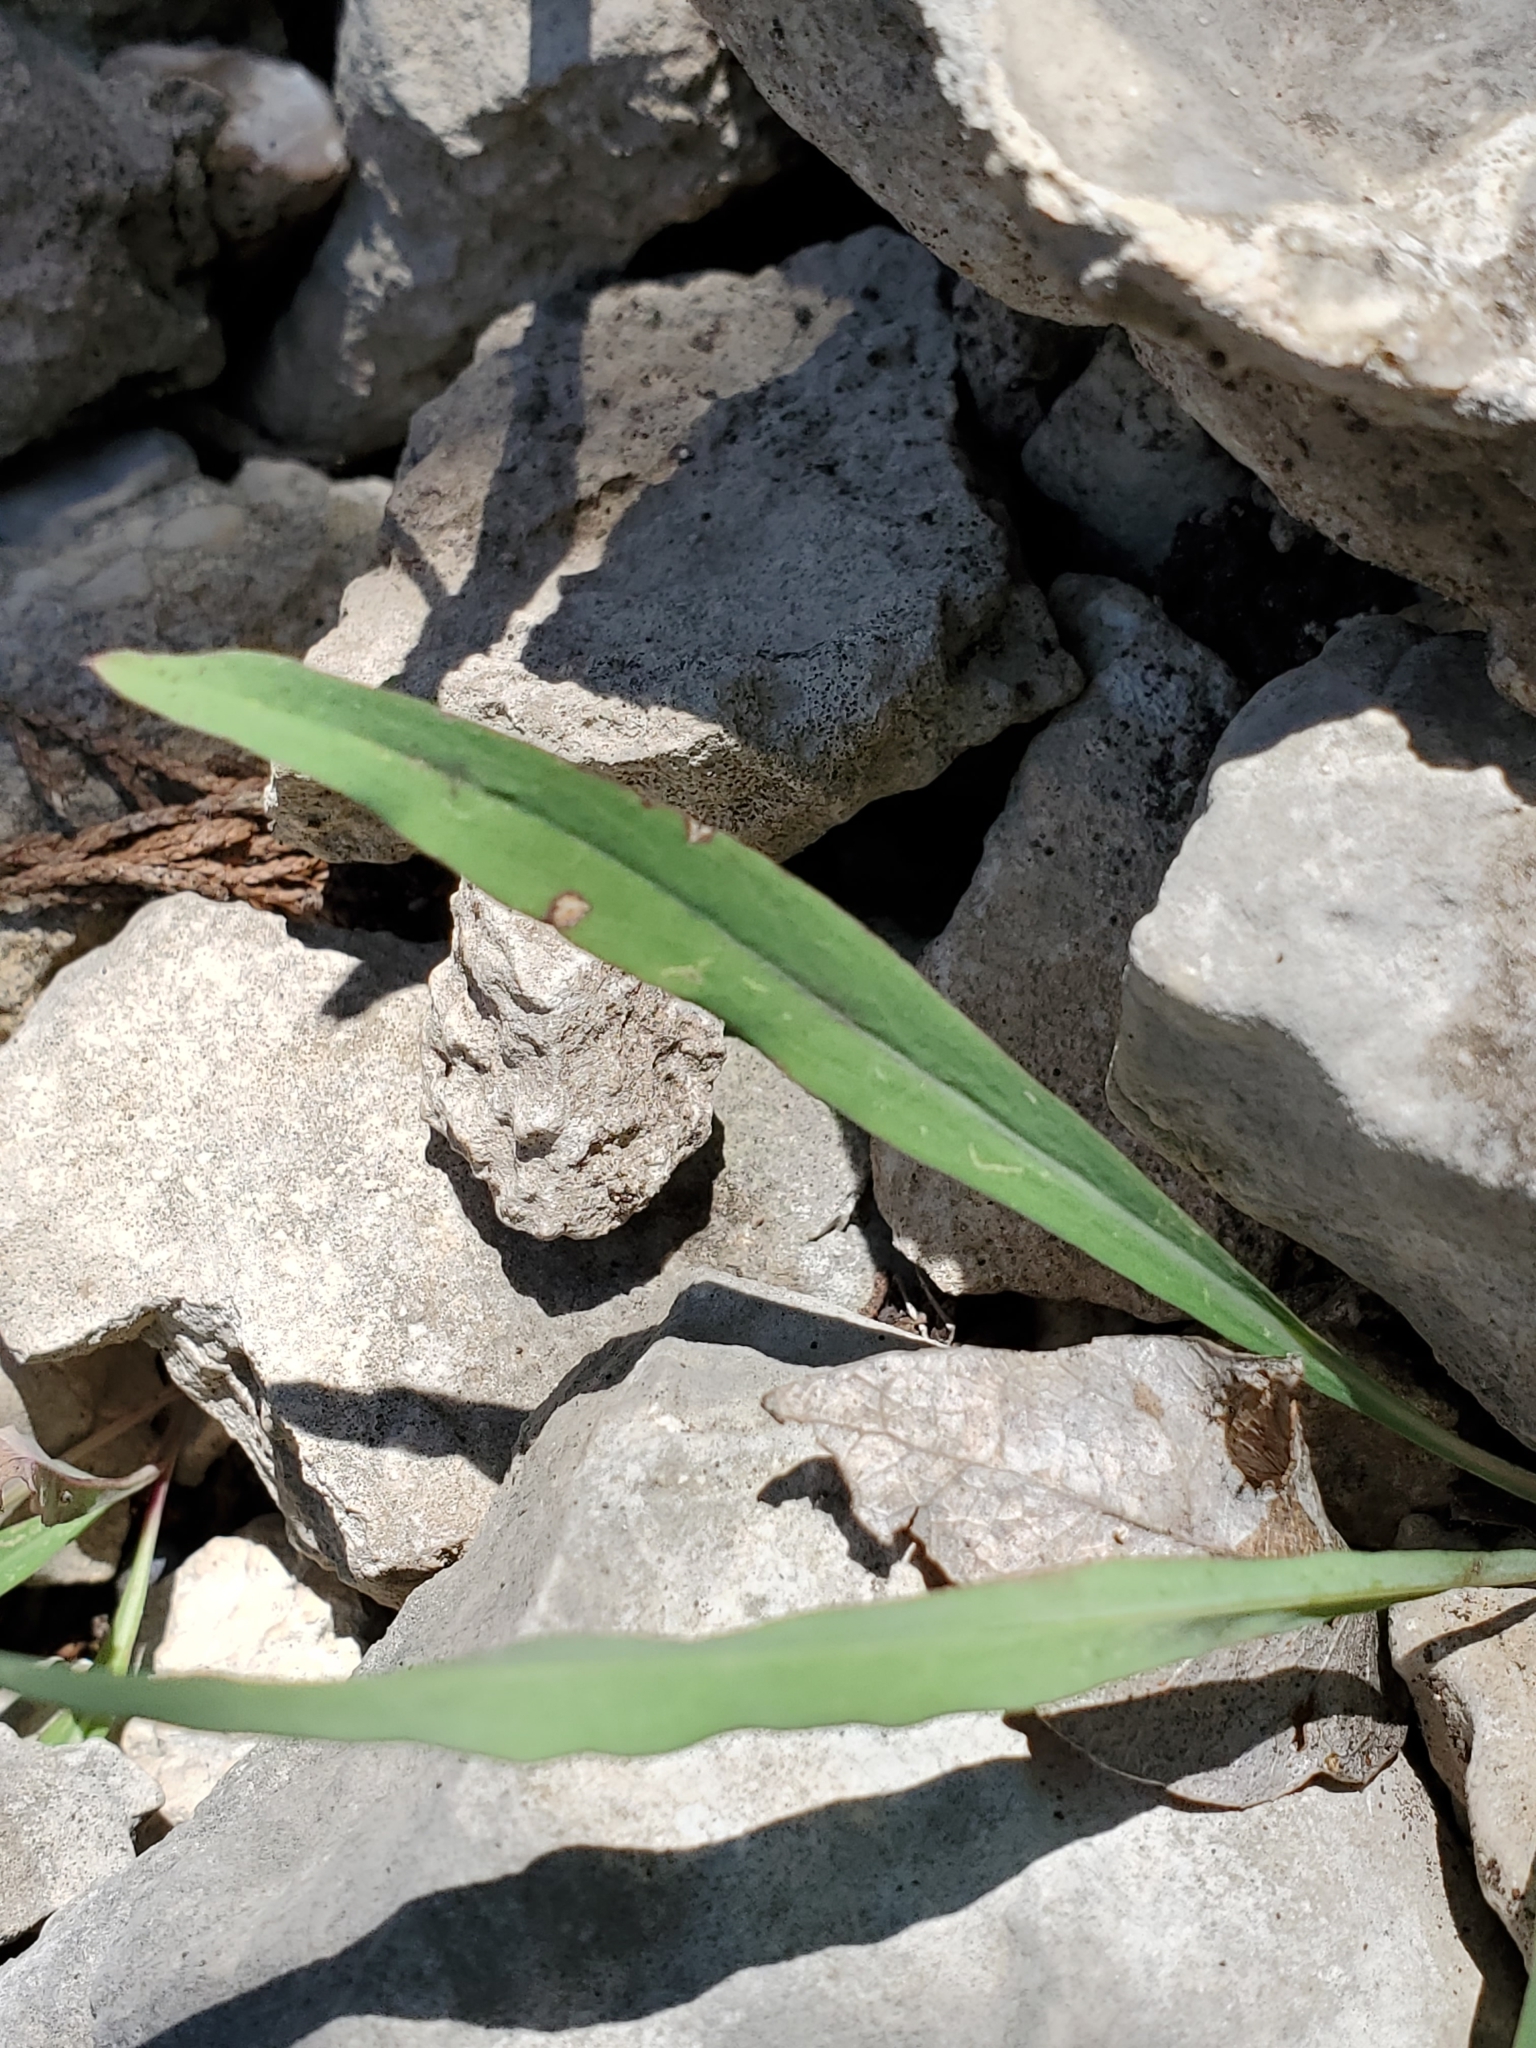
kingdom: Plantae
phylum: Tracheophyta
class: Magnoliopsida
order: Asterales
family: Asteraceae
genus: Pinaropappus
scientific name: Pinaropappus roseus
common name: Rock-lettuce
